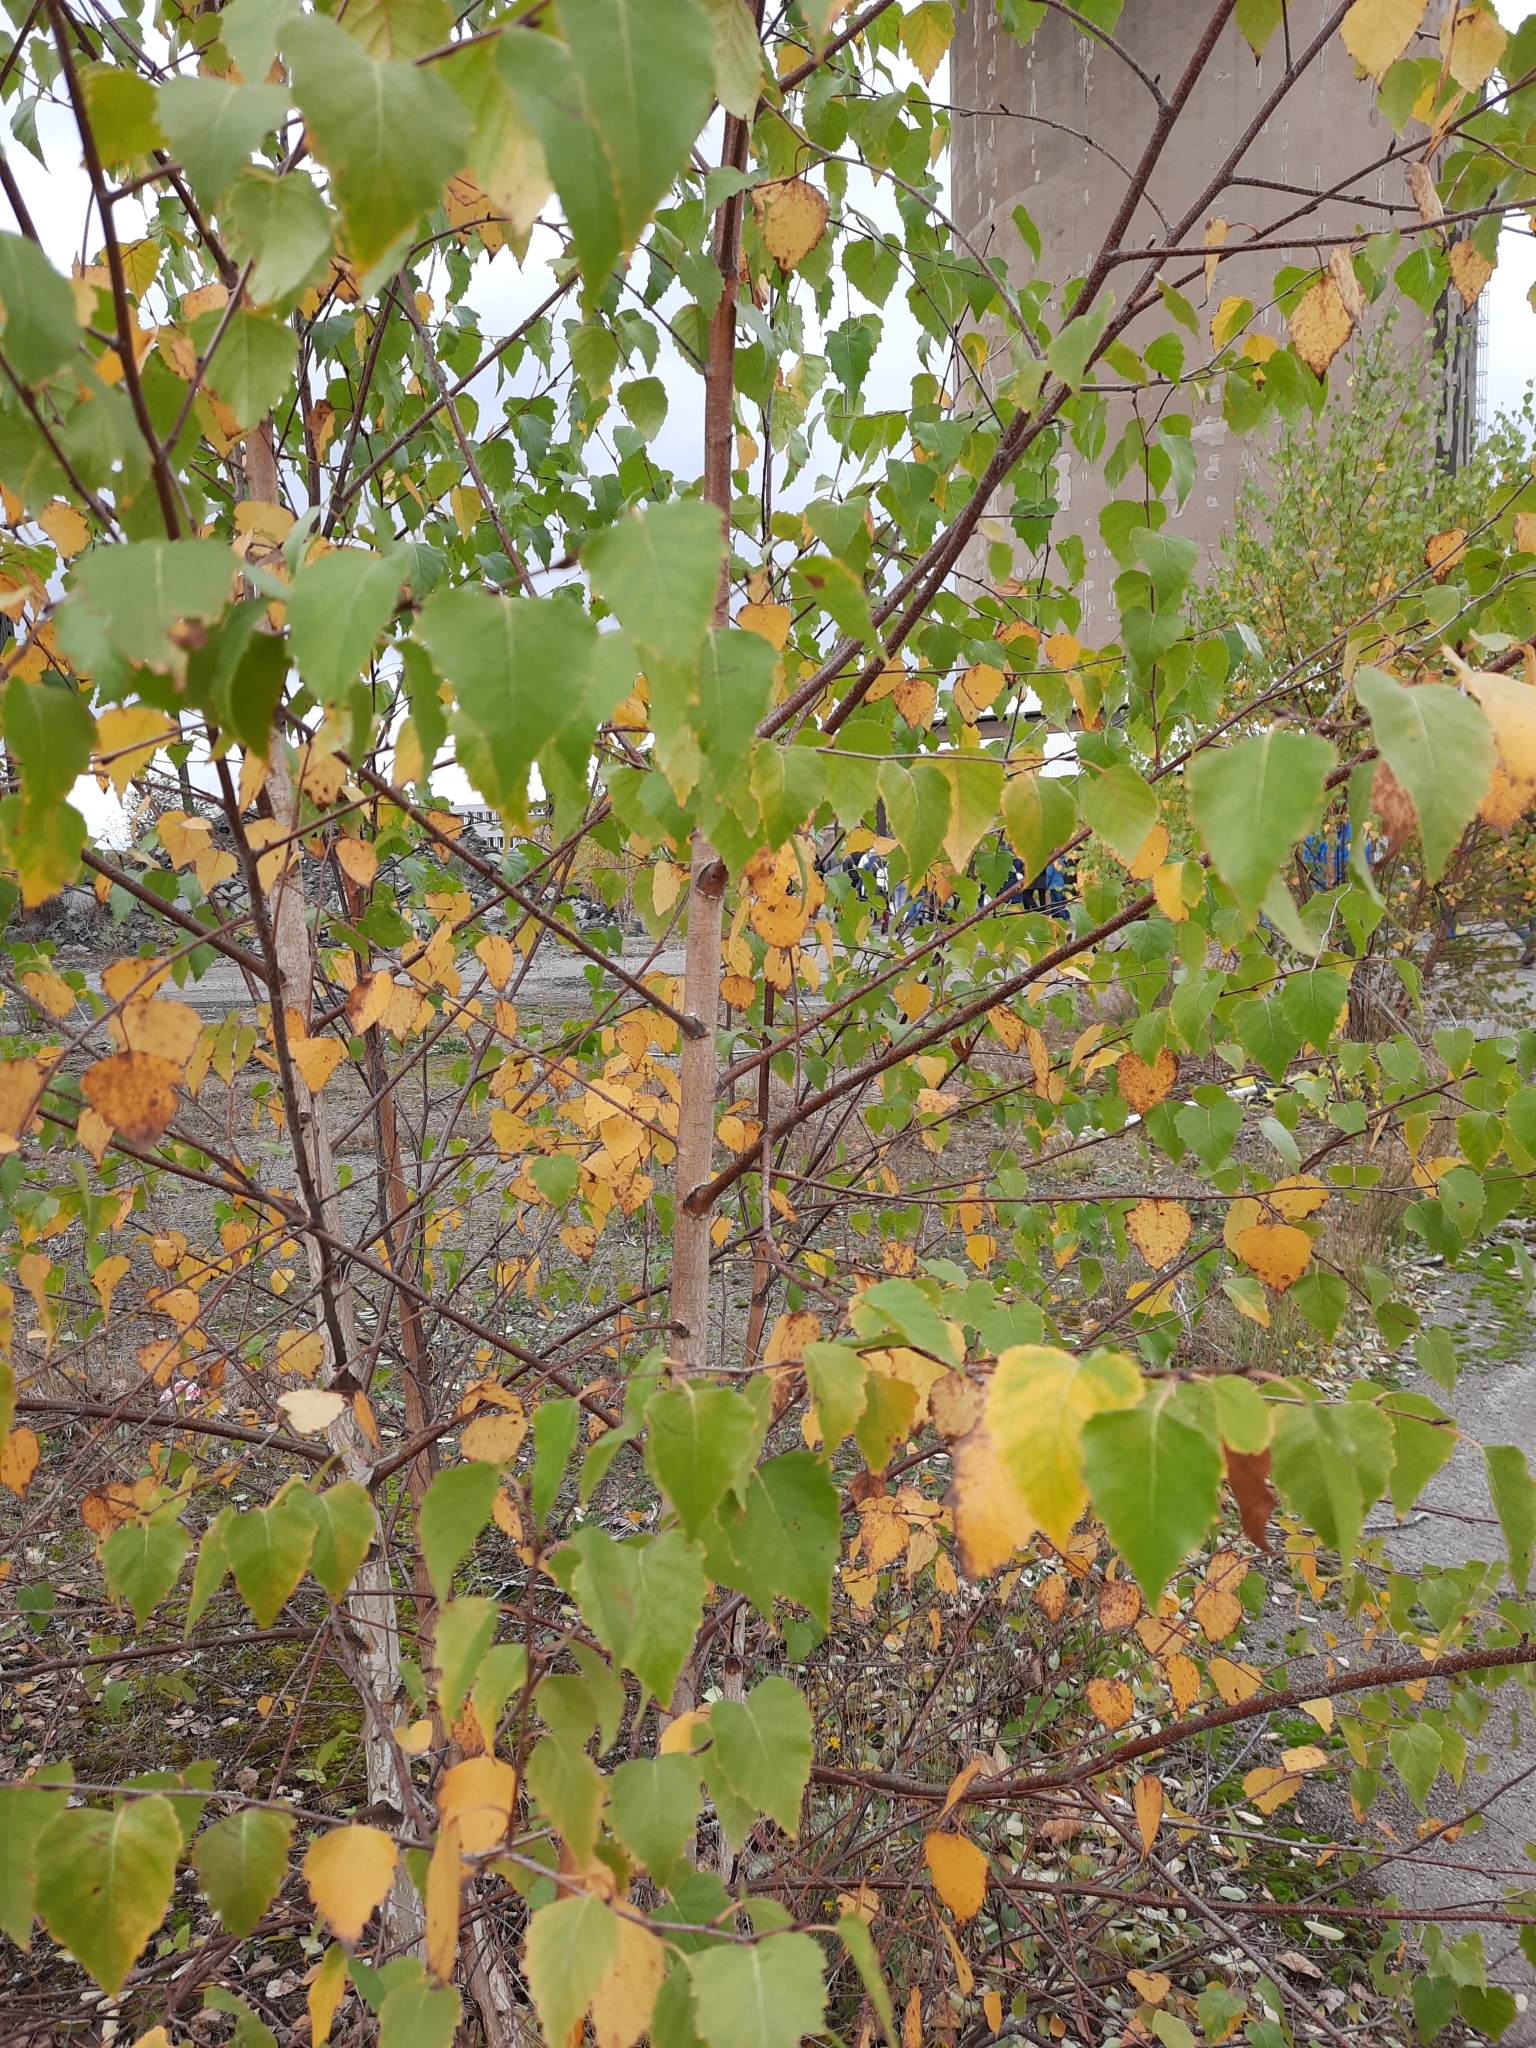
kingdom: Plantae
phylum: Tracheophyta
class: Magnoliopsida
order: Fagales
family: Betulaceae
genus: Betula
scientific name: Betula pendula
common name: Silver birch
